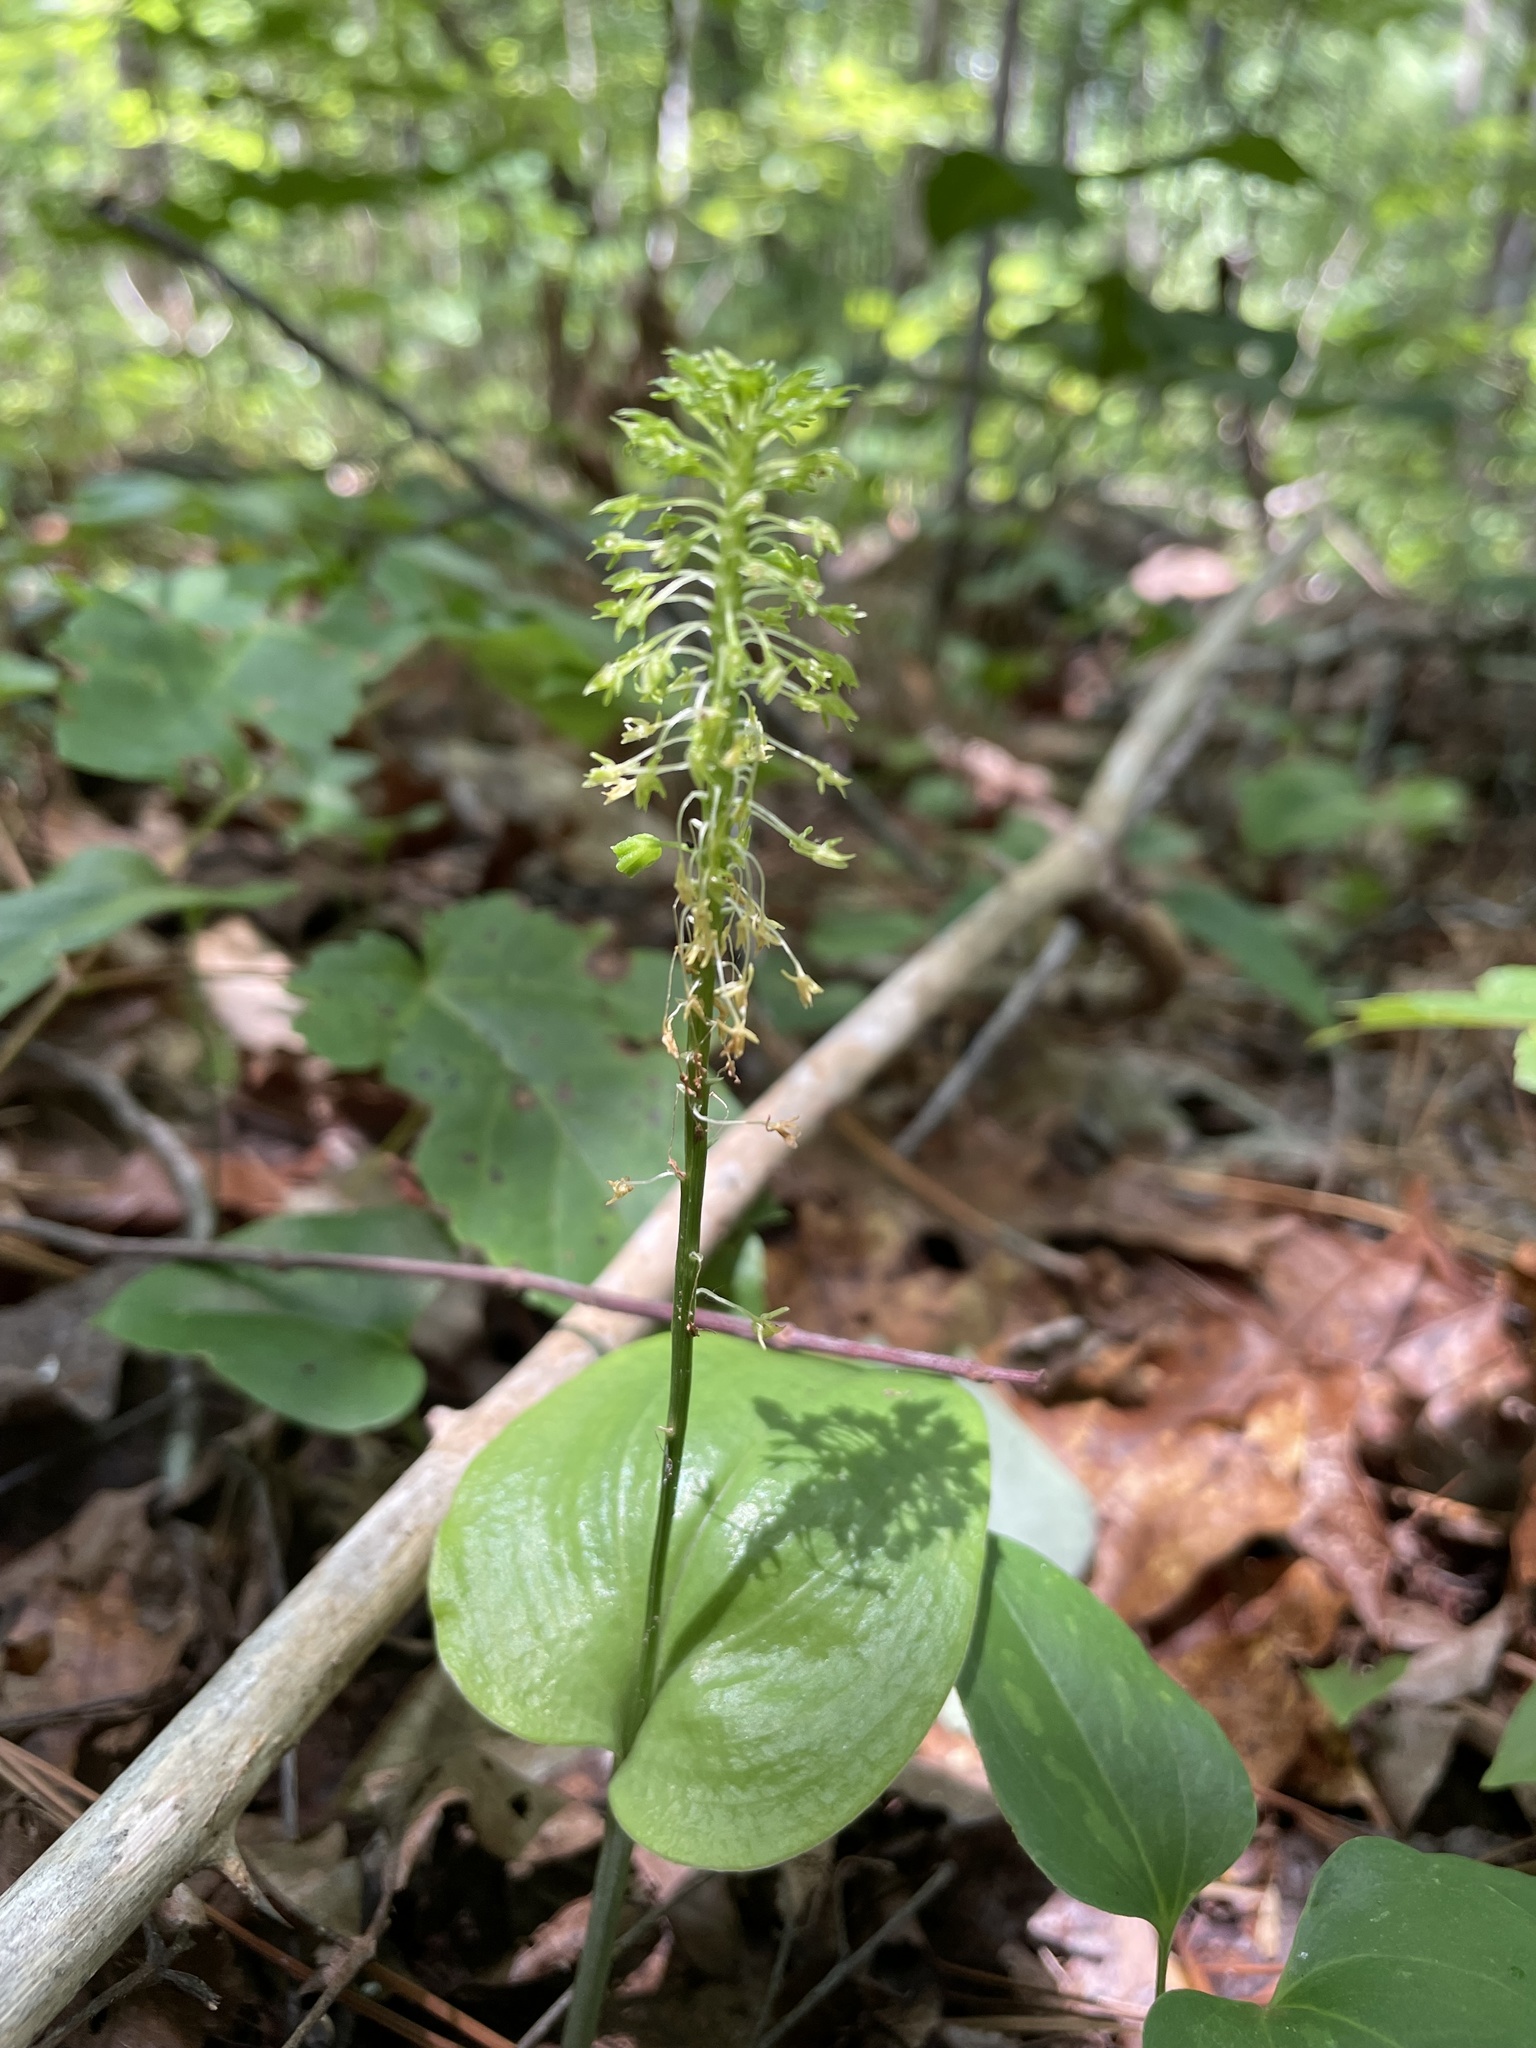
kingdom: Plantae
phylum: Tracheophyta
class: Liliopsida
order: Asparagales
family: Orchidaceae
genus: Malaxis
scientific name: Malaxis unifolia
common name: Green adder's-mouth
